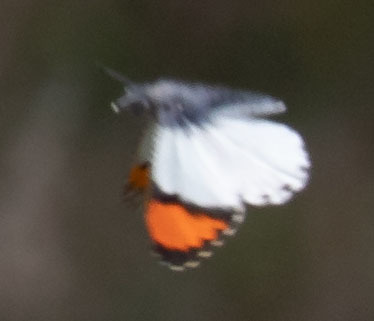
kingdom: Animalia
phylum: Arthropoda
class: Insecta
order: Lepidoptera
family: Pieridae
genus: Anthocharis
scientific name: Anthocharis sara
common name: Sara's orangetip
